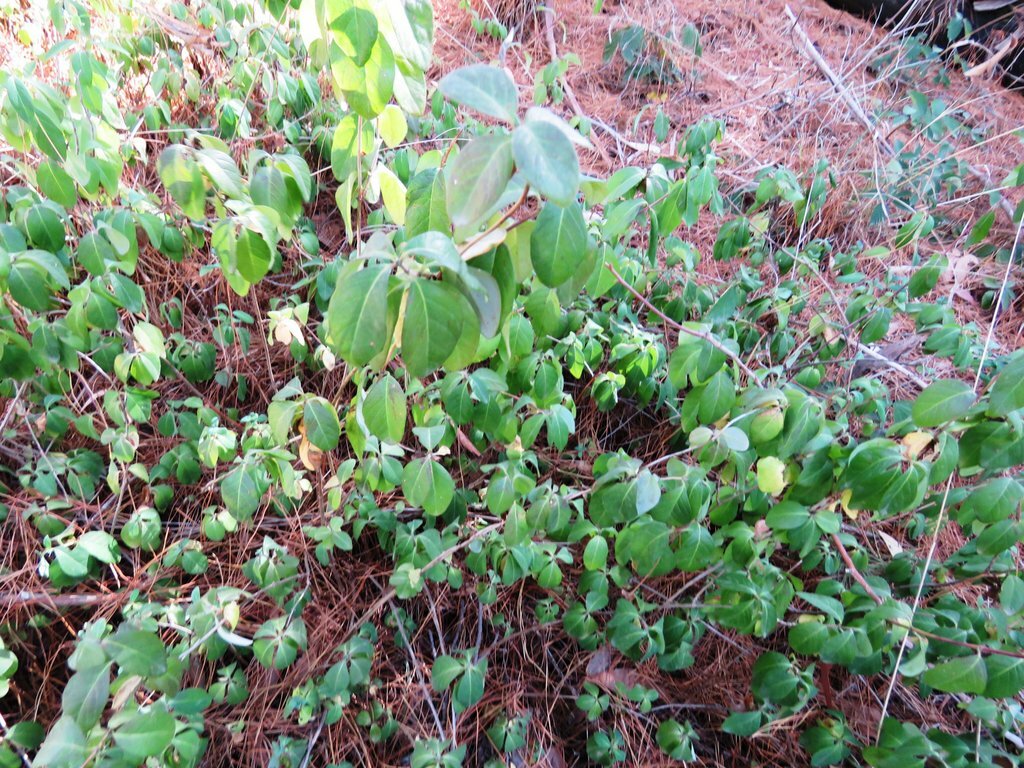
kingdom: Plantae
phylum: Tracheophyta
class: Magnoliopsida
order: Gentianales
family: Apocynaceae
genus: Vinca
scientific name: Vinca major
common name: Greater periwinkle
